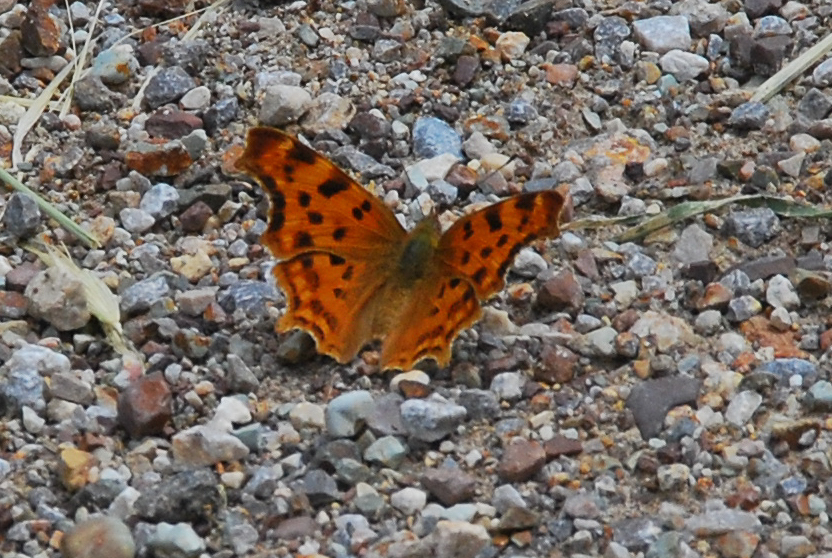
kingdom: Animalia
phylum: Arthropoda
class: Insecta
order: Lepidoptera
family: Nymphalidae
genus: Polygonia
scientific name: Polygonia c-album
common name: Comma
